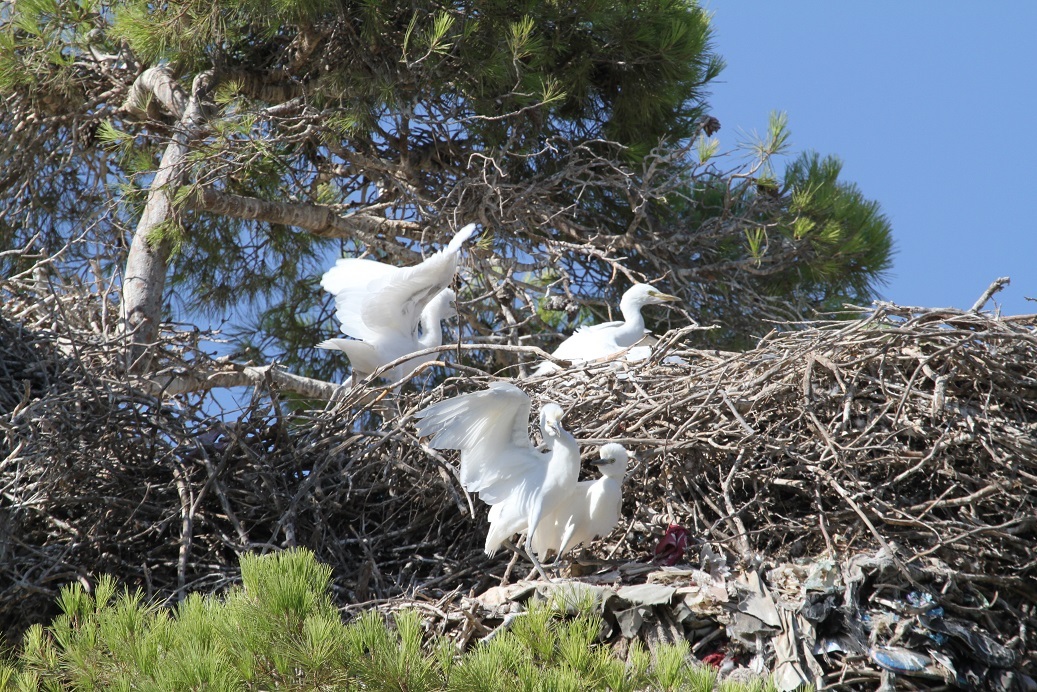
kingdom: Animalia
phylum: Chordata
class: Aves
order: Pelecaniformes
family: Ardeidae
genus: Bubulcus
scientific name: Bubulcus ibis
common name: Cattle egret
